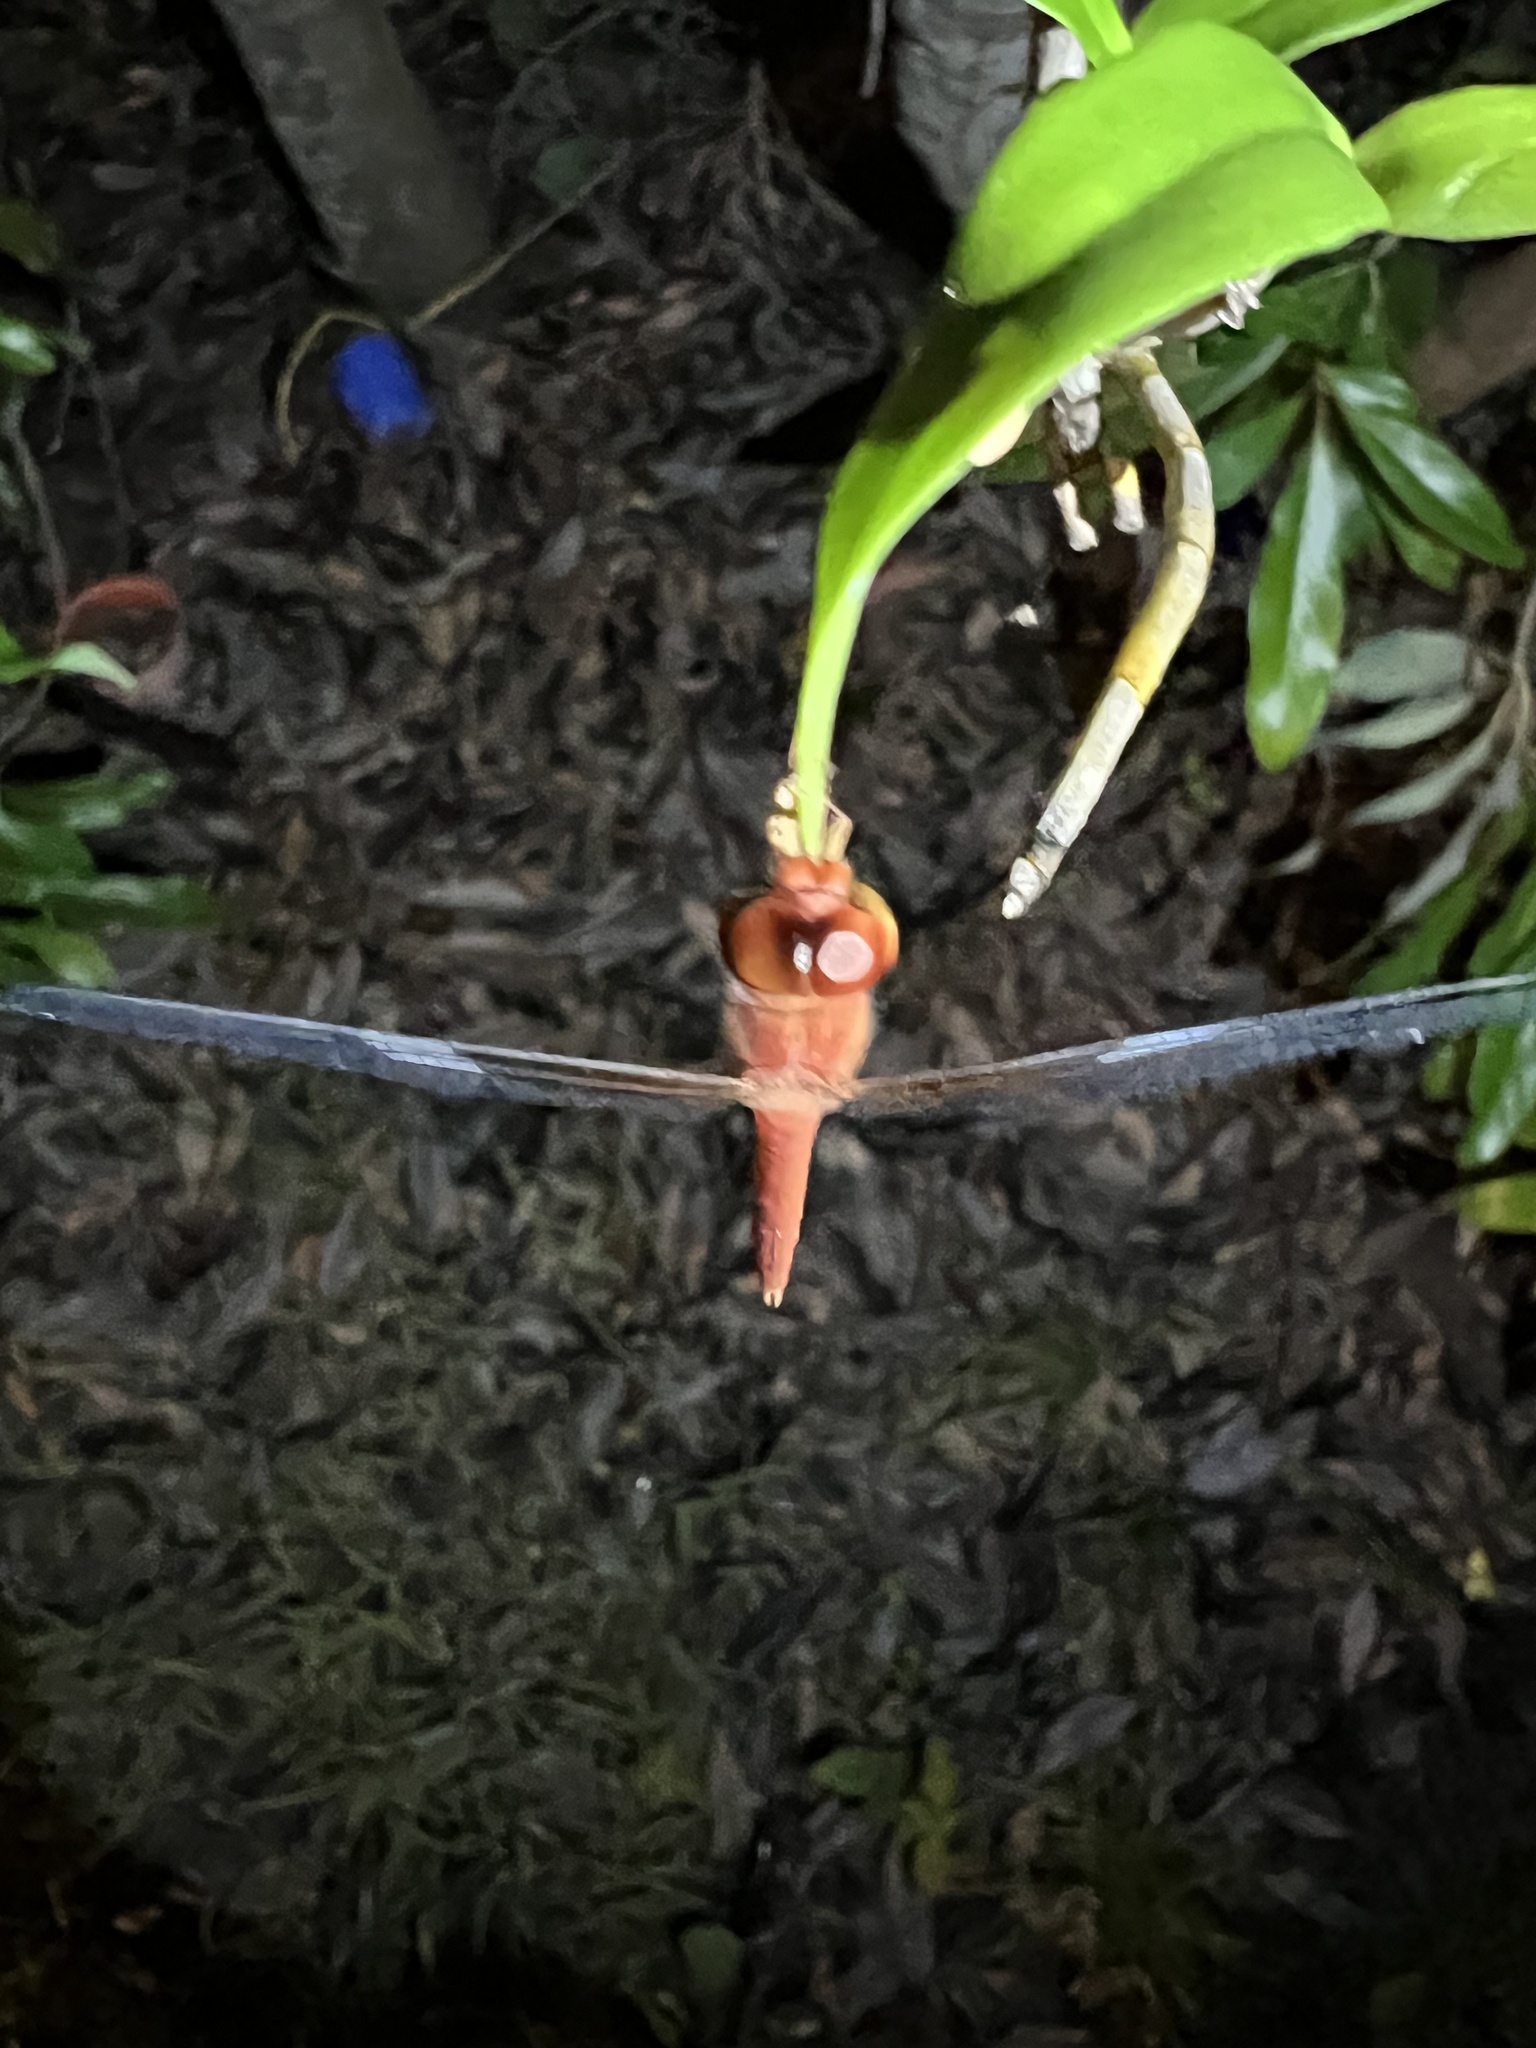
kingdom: Animalia
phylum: Arthropoda
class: Insecta
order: Odonata
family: Libellulidae
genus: Tholymis
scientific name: Tholymis tillarga
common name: Coral-tailed cloud wing
